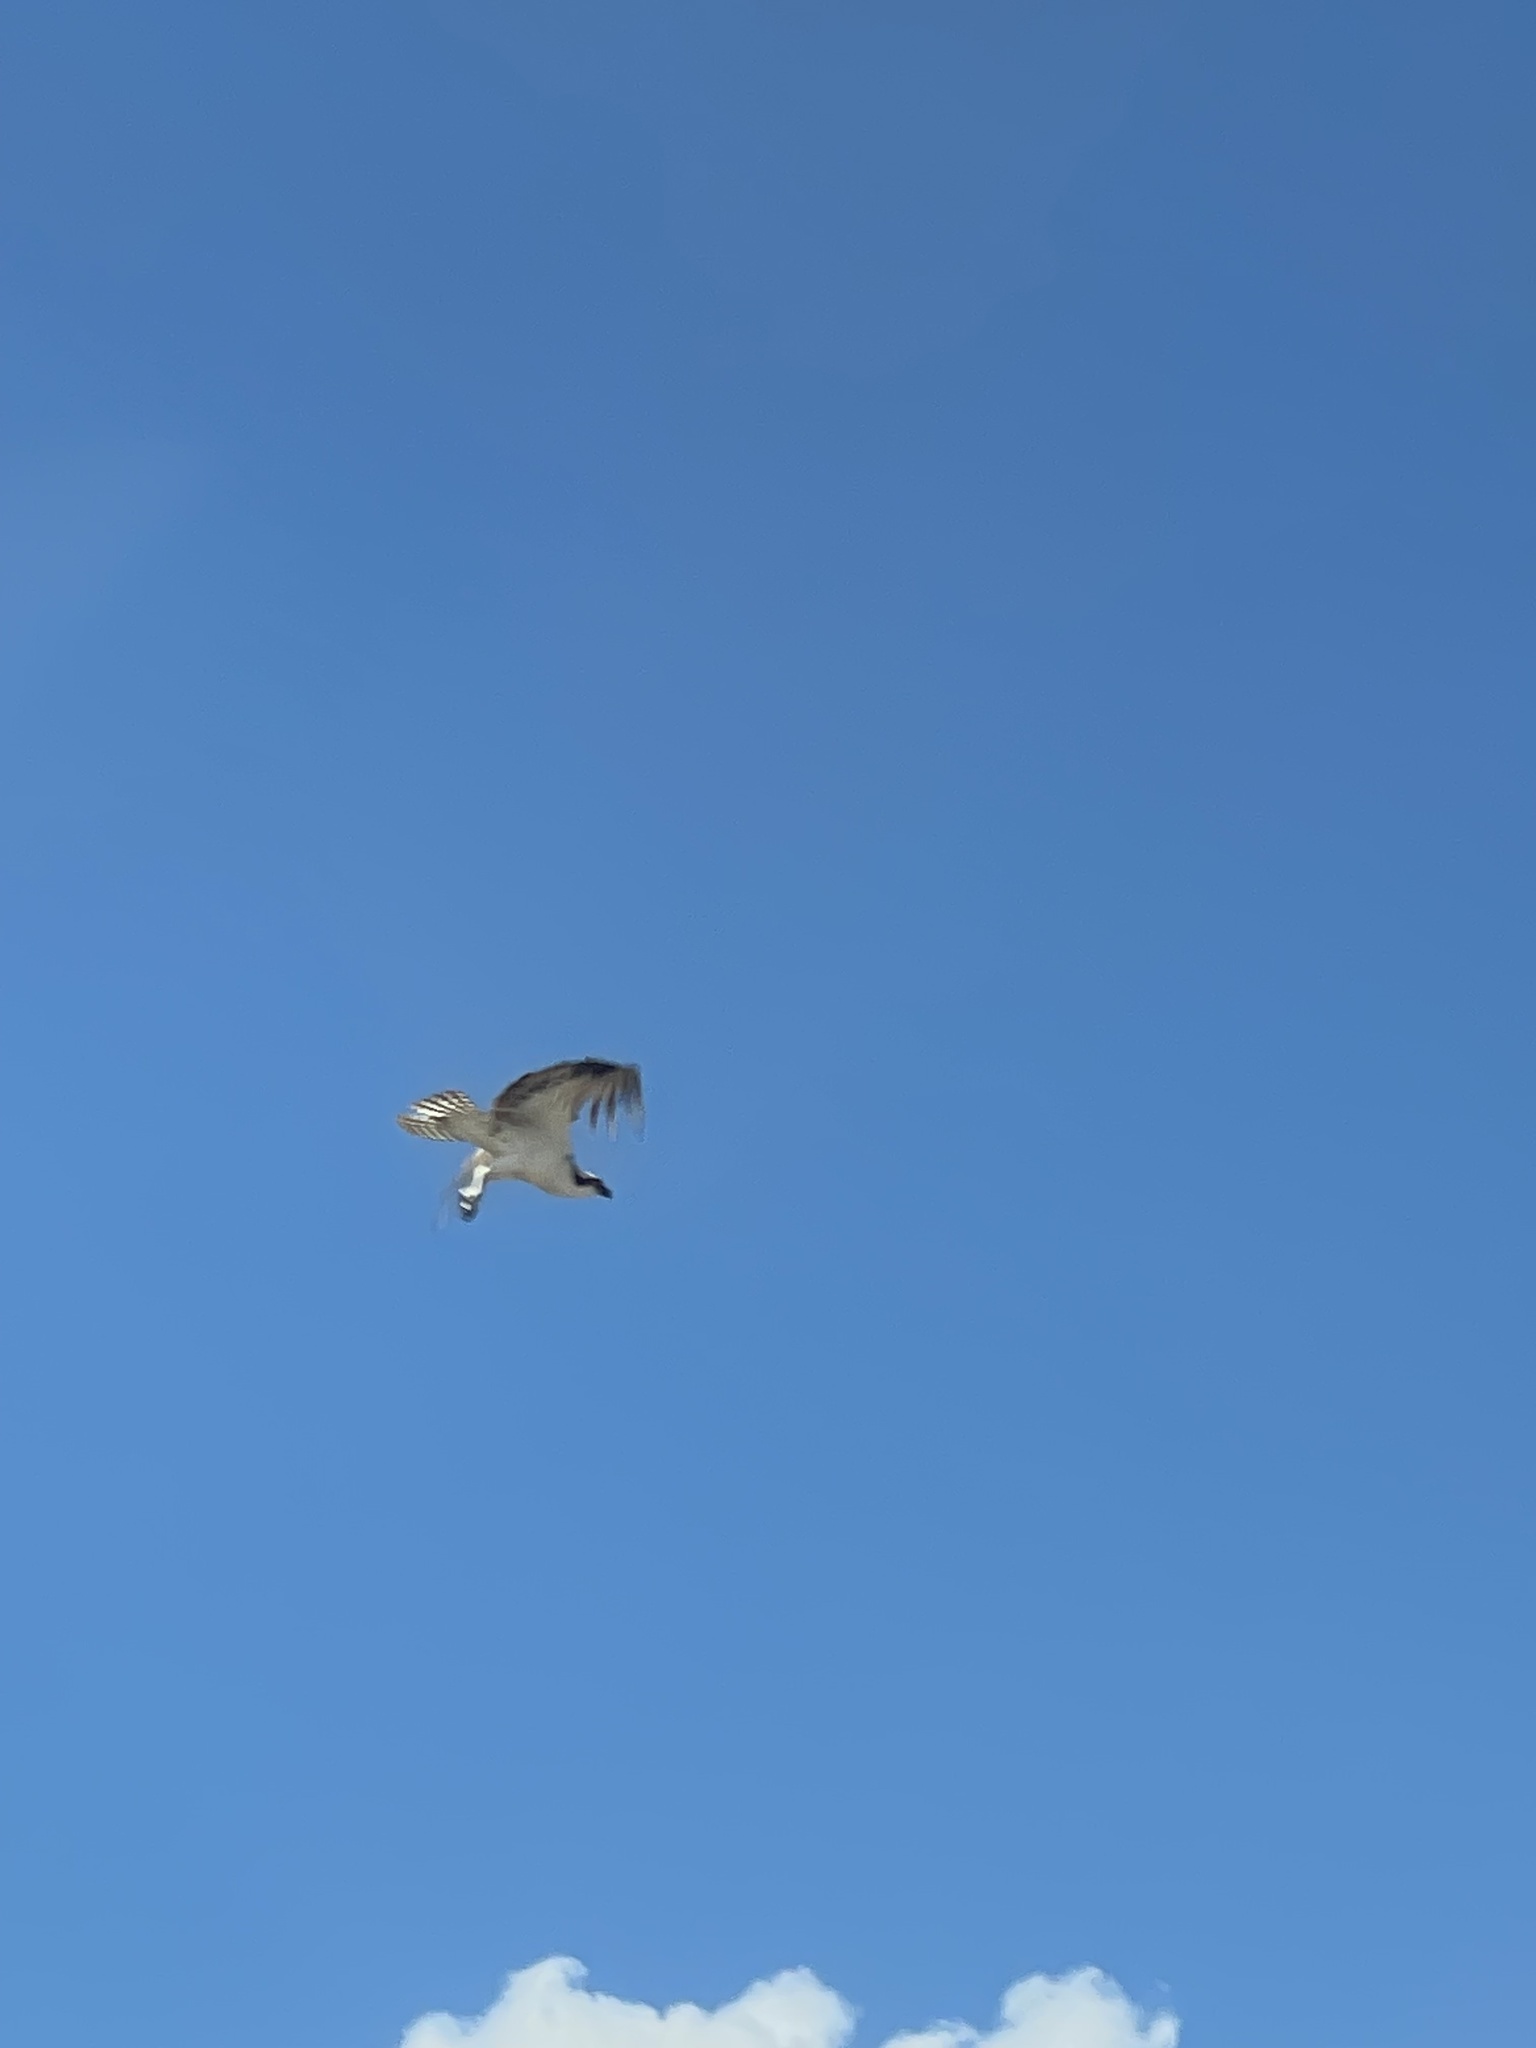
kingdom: Animalia
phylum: Chordata
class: Aves
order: Accipitriformes
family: Pandionidae
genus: Pandion
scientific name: Pandion haliaetus
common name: Osprey
